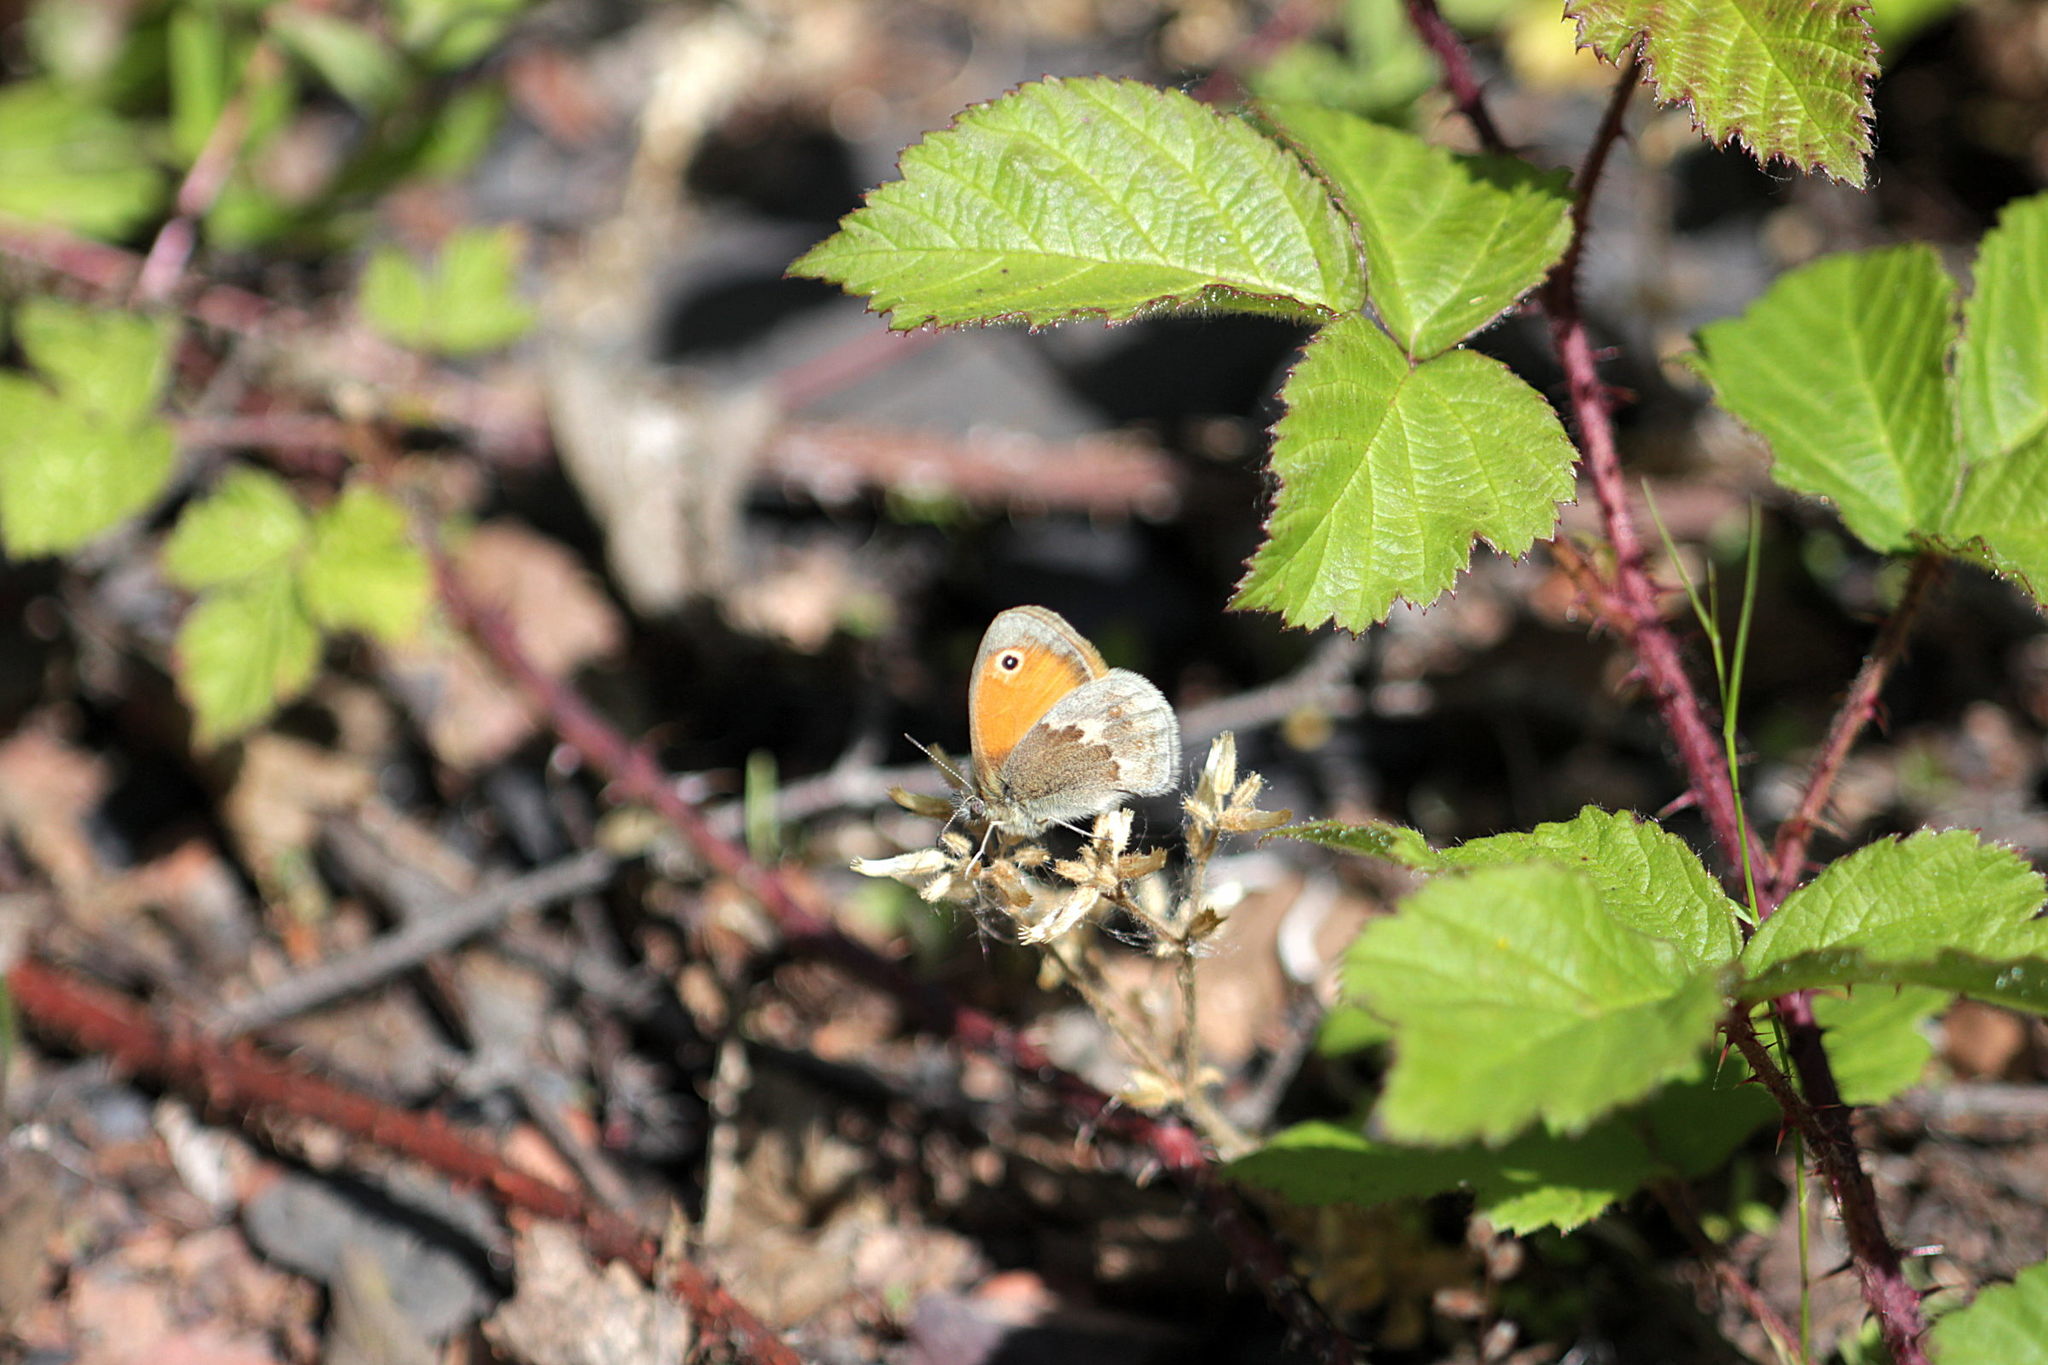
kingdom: Animalia
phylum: Arthropoda
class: Insecta
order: Lepidoptera
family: Nymphalidae
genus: Coenonympha
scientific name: Coenonympha pamphilus
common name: Small heath
